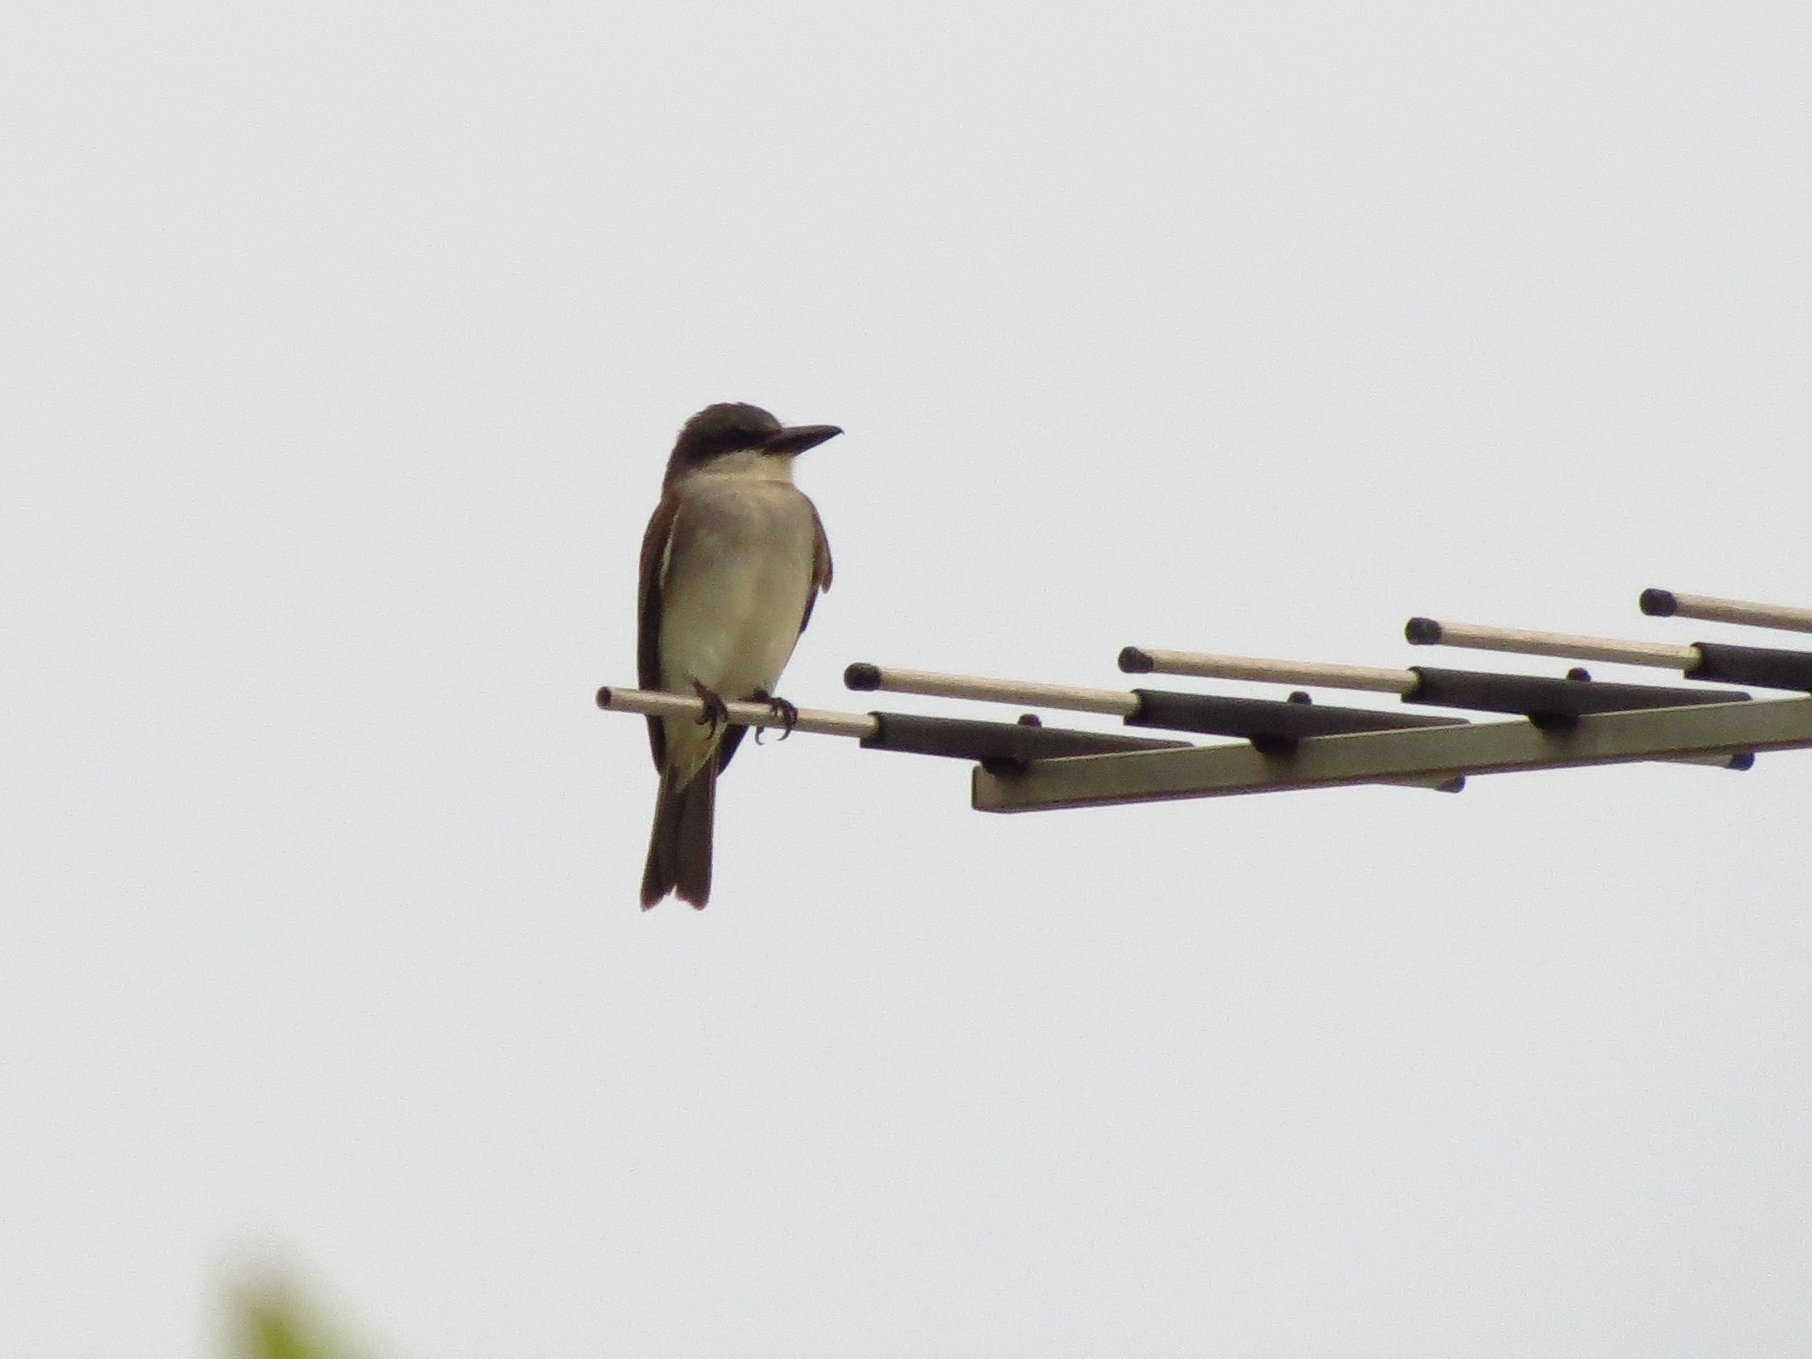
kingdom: Animalia
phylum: Chordata
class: Aves
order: Passeriformes
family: Tyrannidae
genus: Tyrannus
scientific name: Tyrannus dominicensis
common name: Gray kingbird
